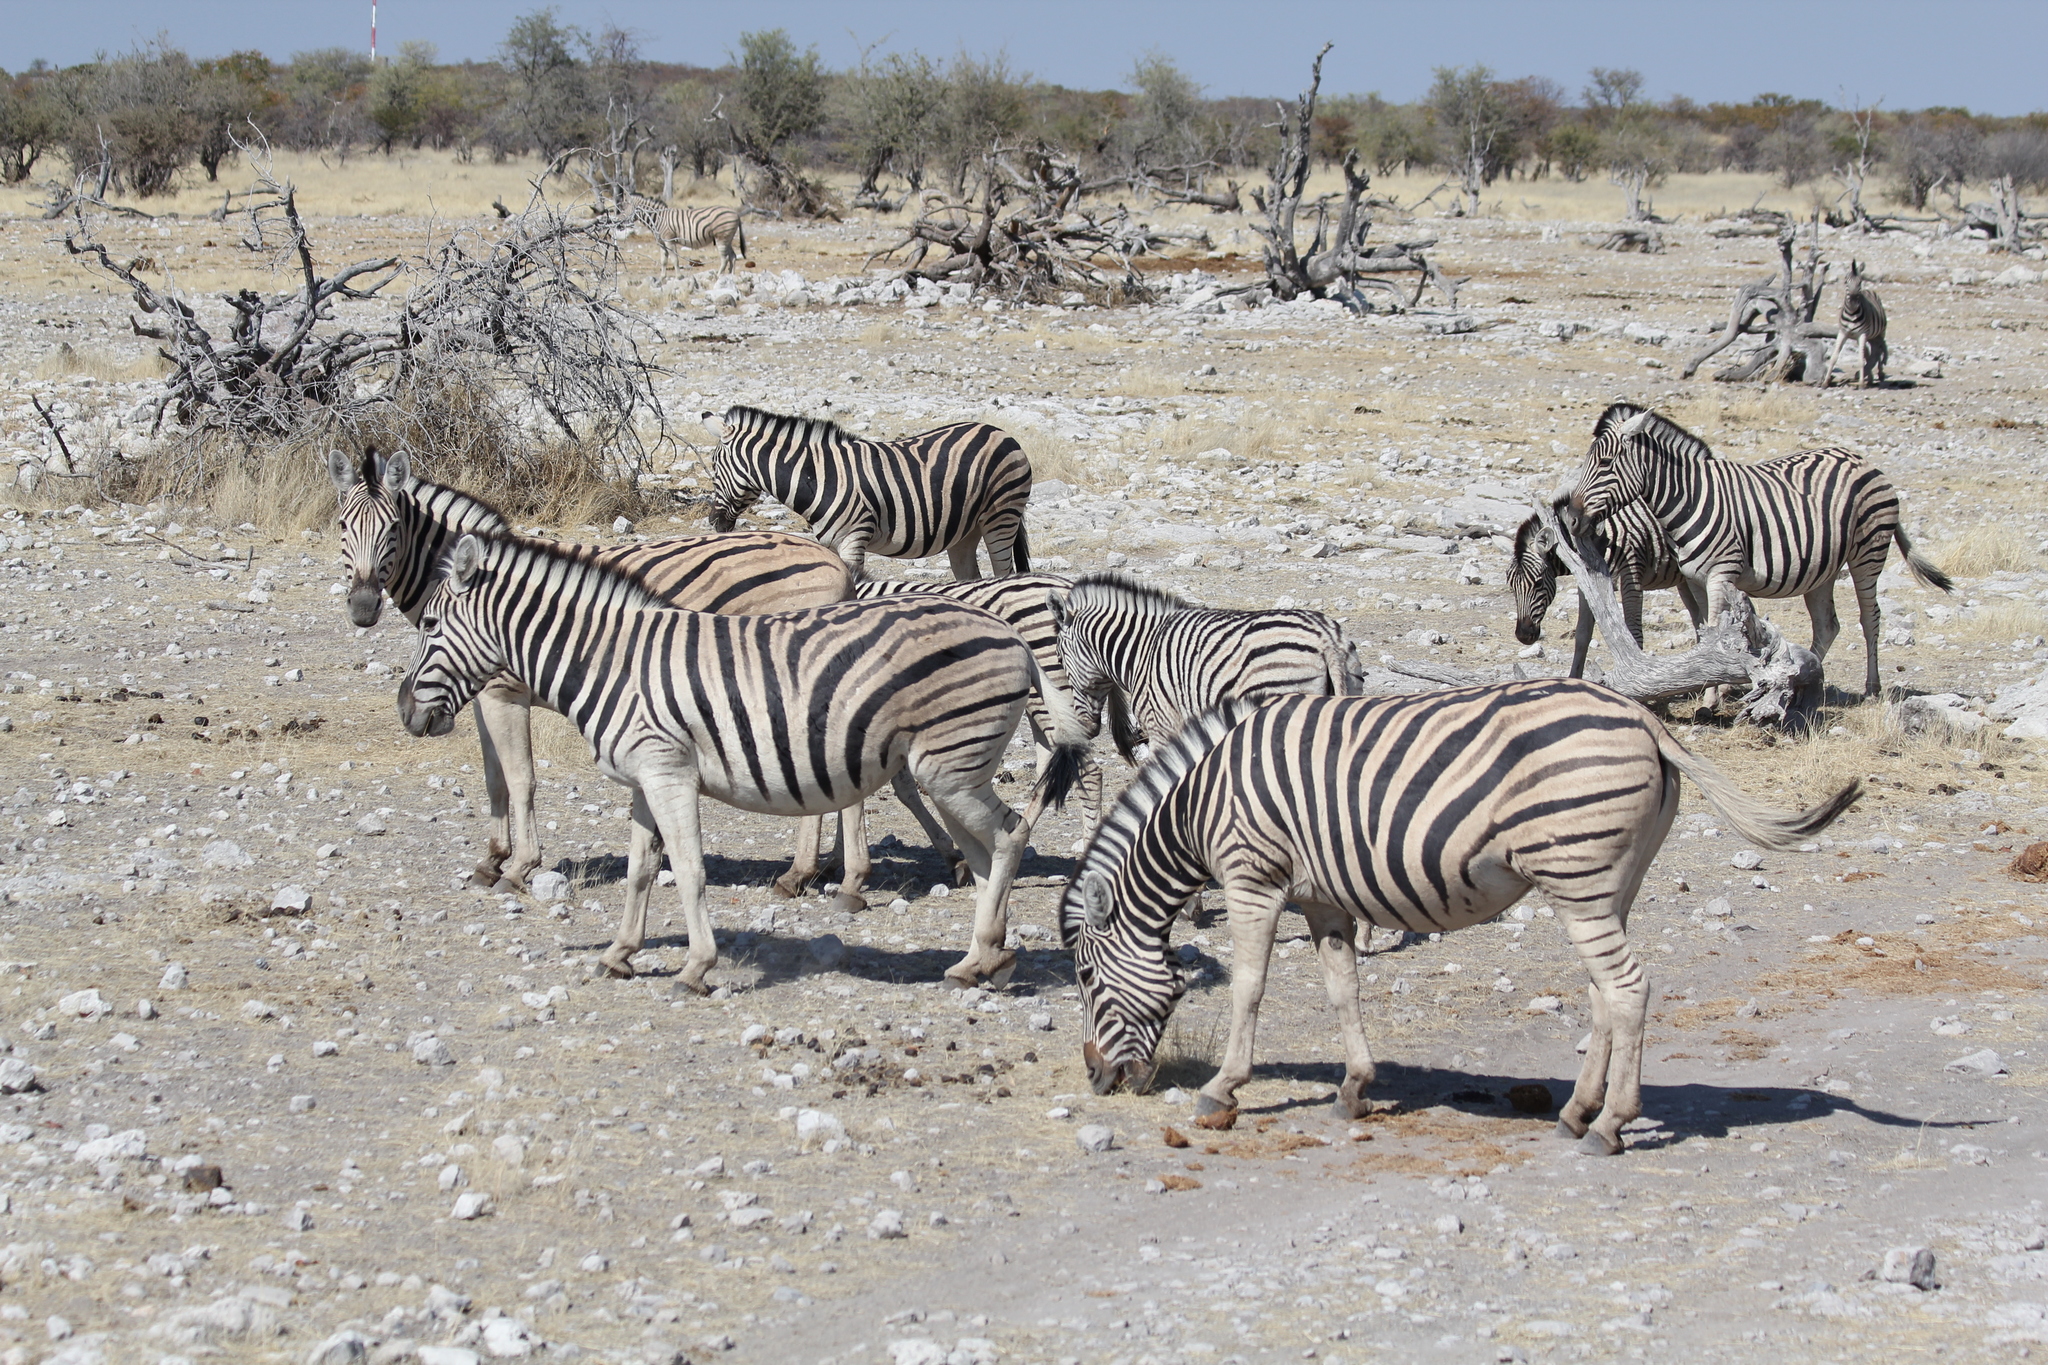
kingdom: Animalia
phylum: Chordata
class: Mammalia
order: Perissodactyla
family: Equidae
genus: Equus
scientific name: Equus quagga
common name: Plains zebra
